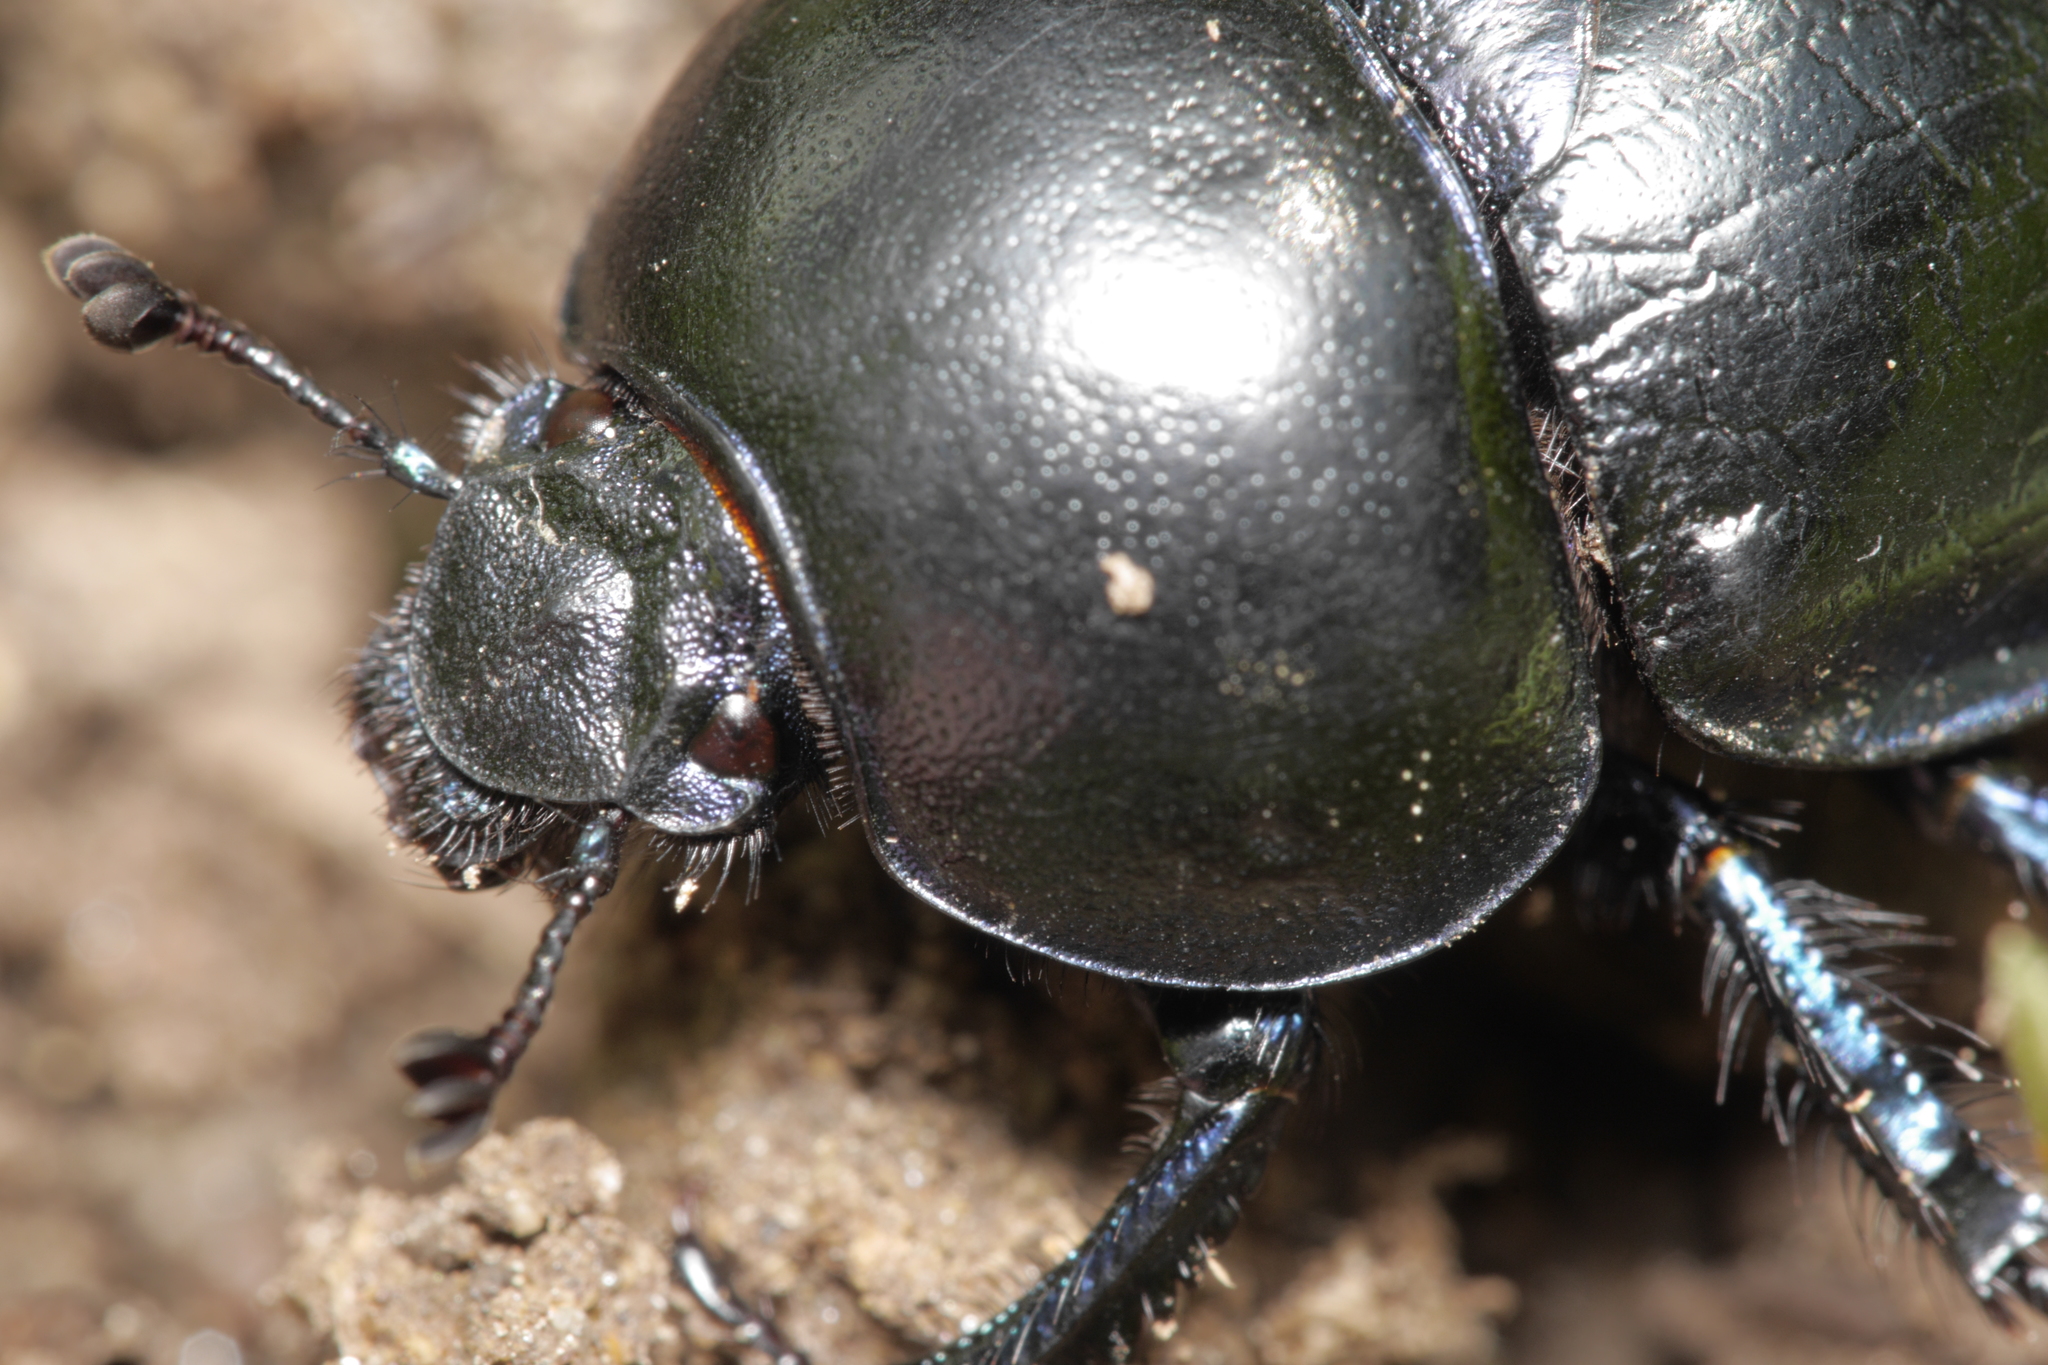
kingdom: Animalia
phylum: Arthropoda
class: Insecta
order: Coleoptera
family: Geotrupidae
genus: Trypocopris
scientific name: Trypocopris vernalis
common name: Spring dumbledor
